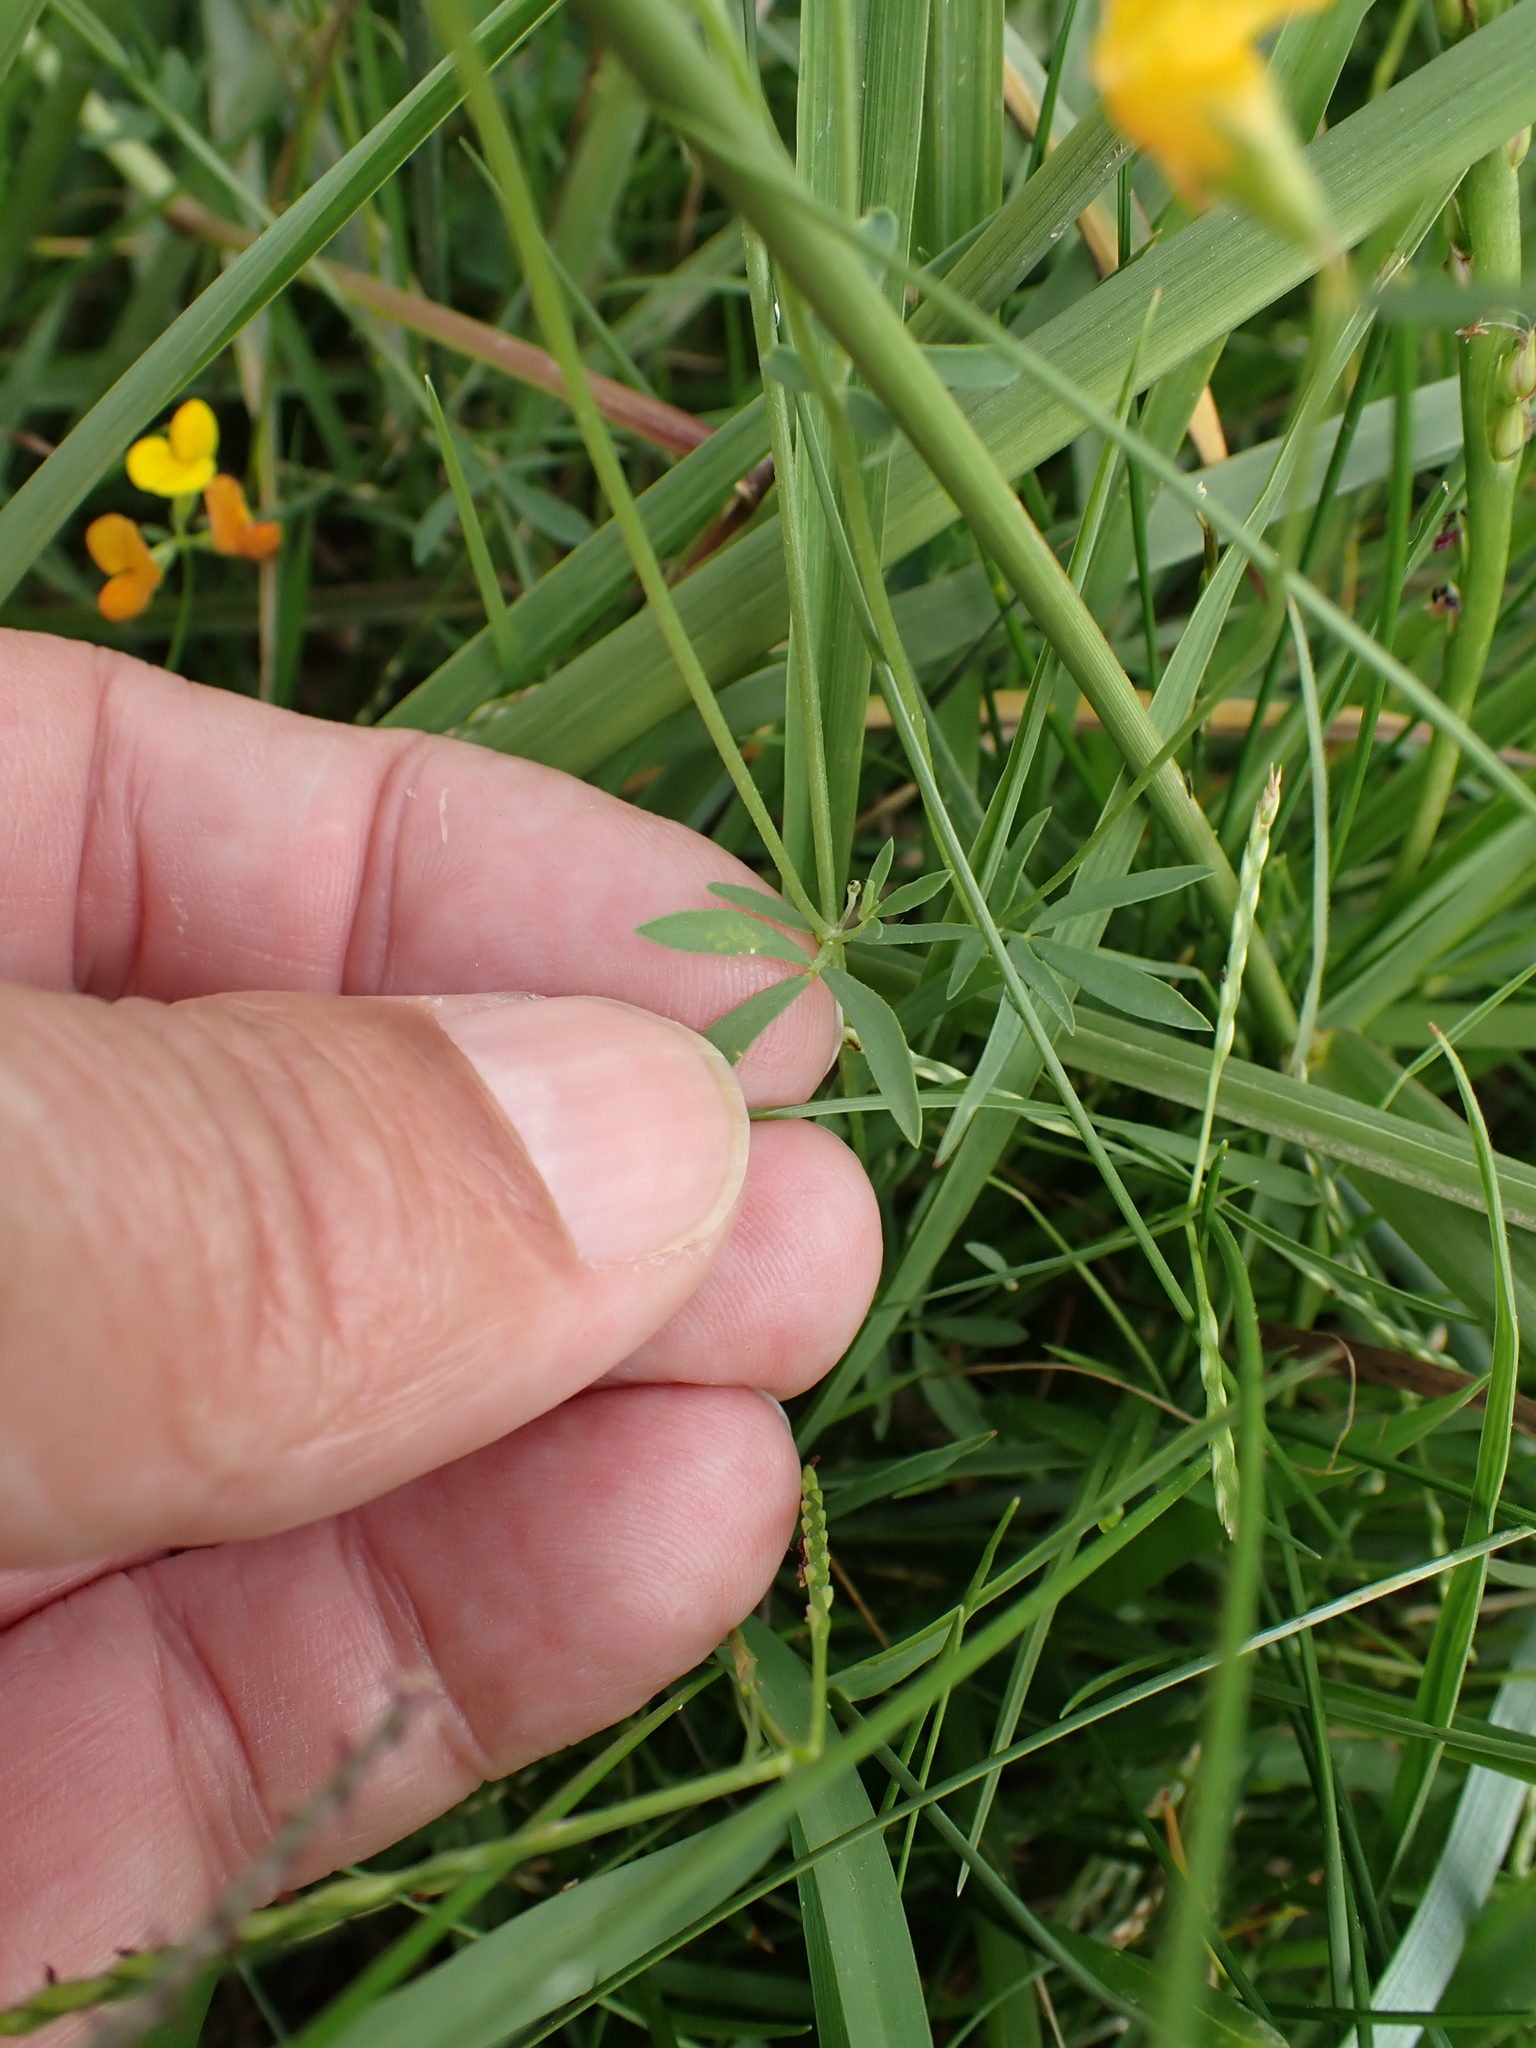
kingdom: Plantae
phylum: Tracheophyta
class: Magnoliopsida
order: Fabales
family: Fabaceae
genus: Lotus
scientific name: Lotus tenuis
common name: Narrow-leaved bird's-foot-trefoil
